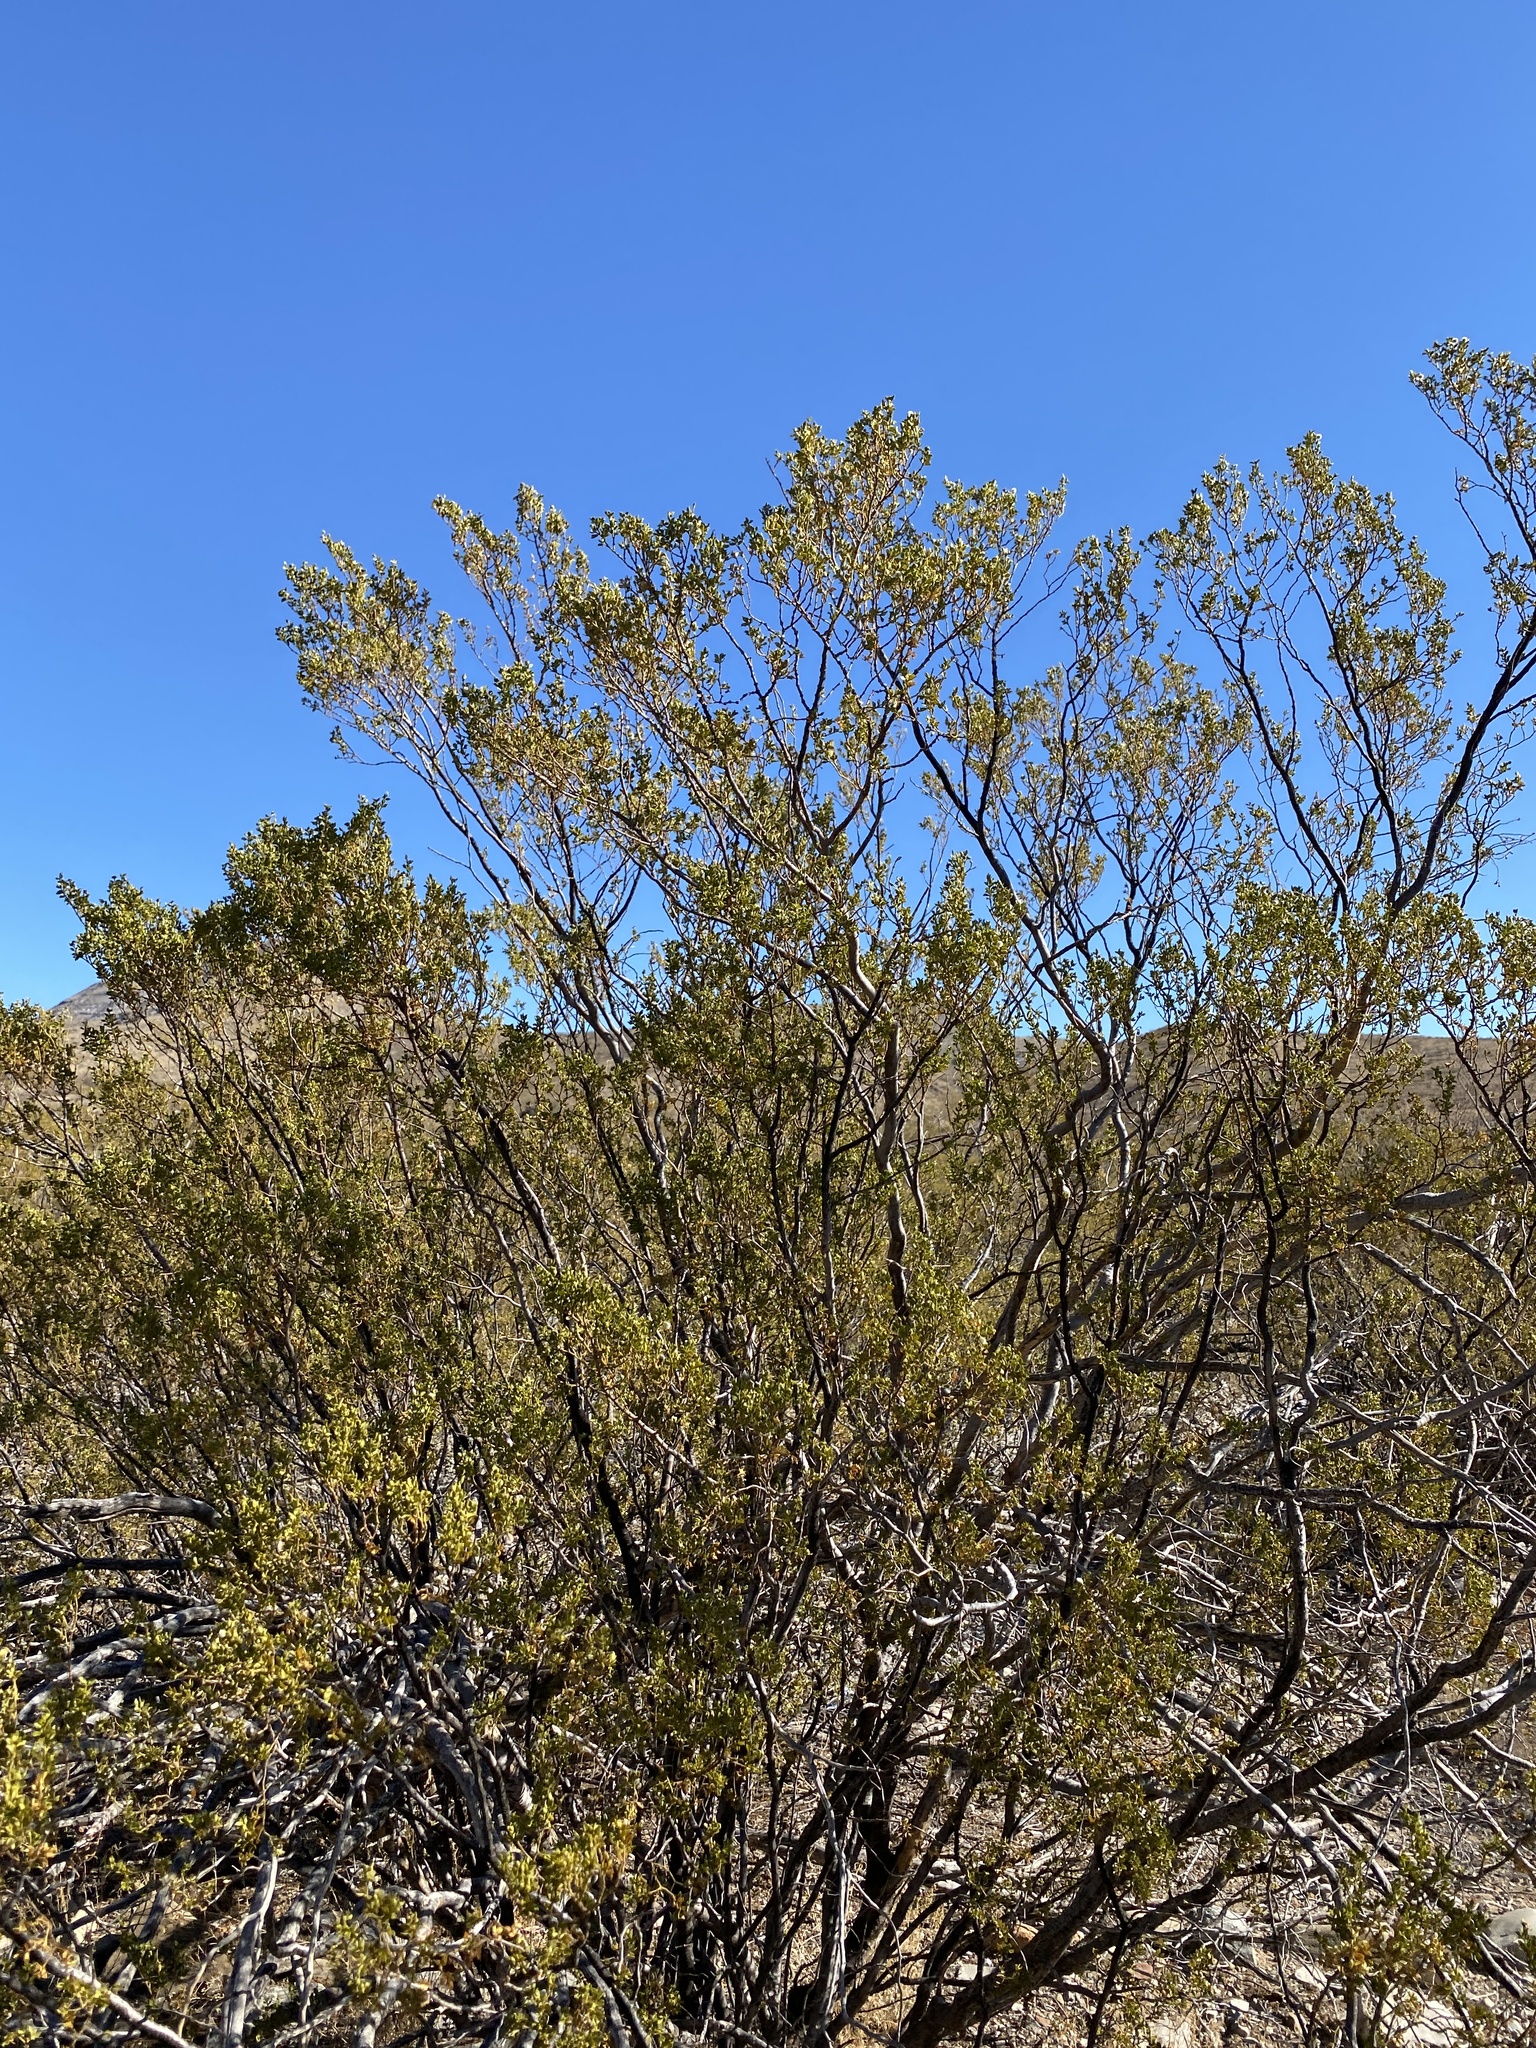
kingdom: Plantae
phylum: Tracheophyta
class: Magnoliopsida
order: Zygophyllales
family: Zygophyllaceae
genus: Larrea
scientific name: Larrea tridentata
